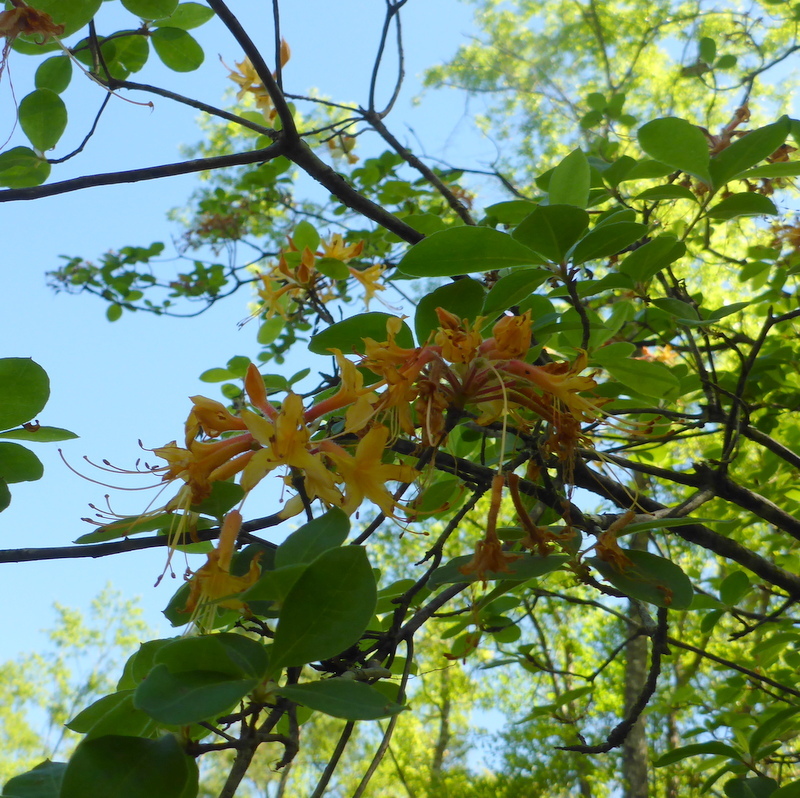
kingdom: Plantae
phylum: Tracheophyta
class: Magnoliopsida
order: Ericales
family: Ericaceae
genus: Rhododendron
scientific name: Rhododendron calendulaceum
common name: Flame azalea
